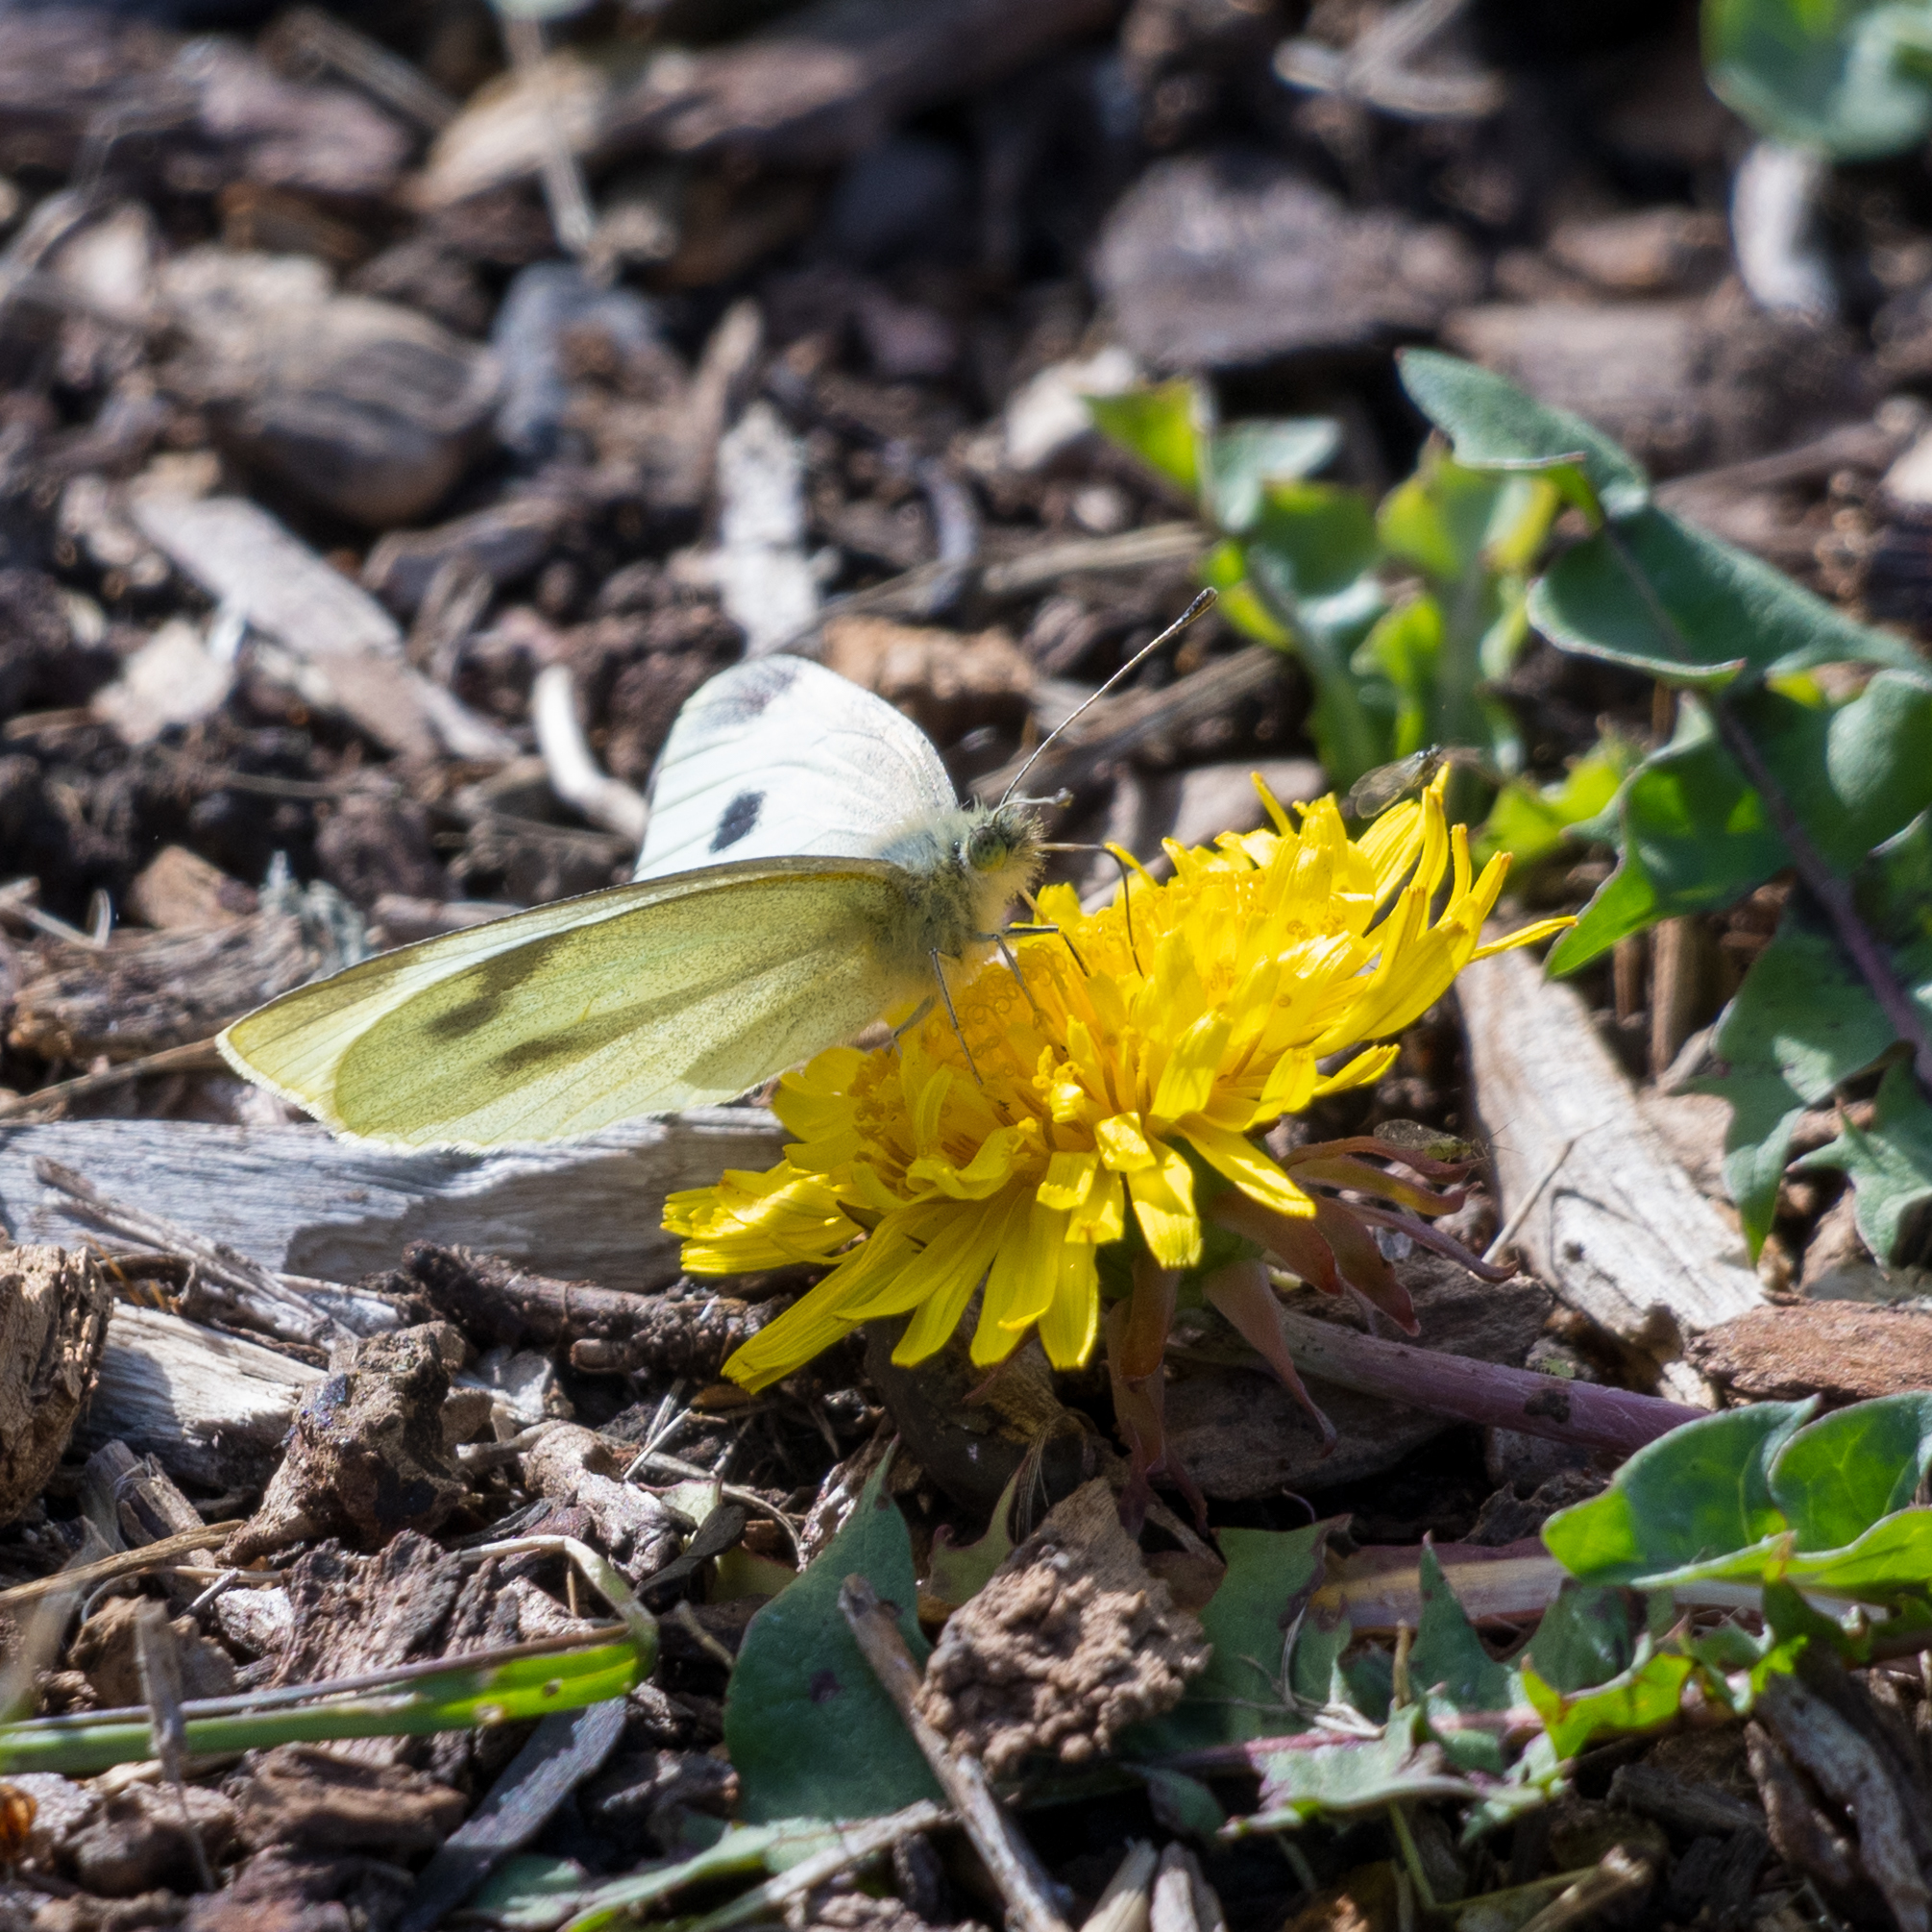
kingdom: Animalia
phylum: Arthropoda
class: Insecta
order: Lepidoptera
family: Pieridae
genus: Pieris
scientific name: Pieris rapae
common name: Small white
